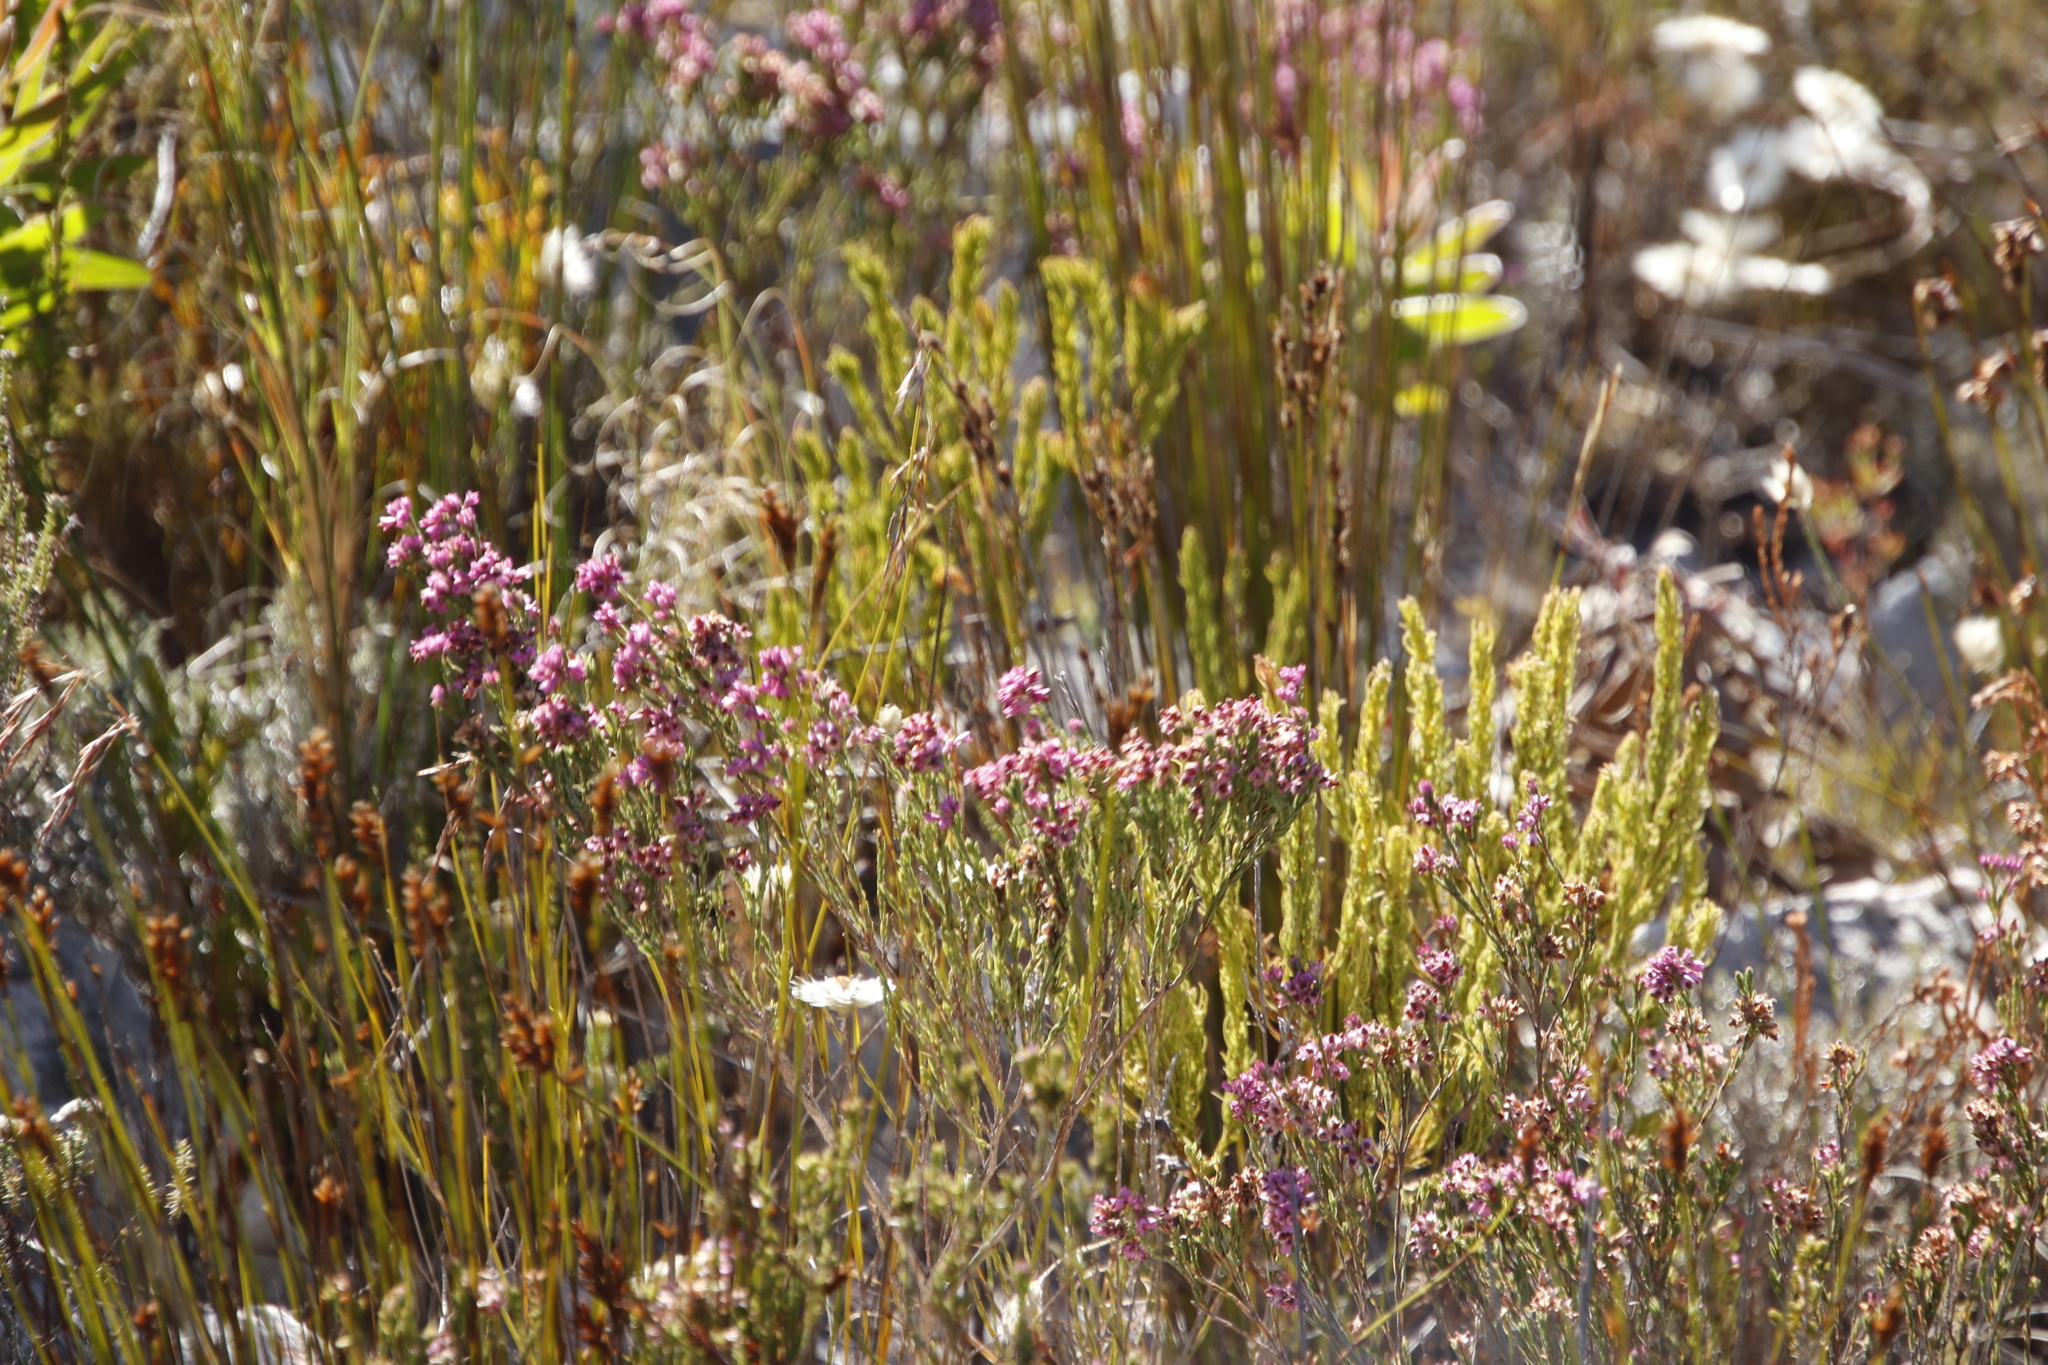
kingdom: Plantae
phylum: Tracheophyta
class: Magnoliopsida
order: Ericales
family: Ericaceae
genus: Erica
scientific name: Erica corifolia
